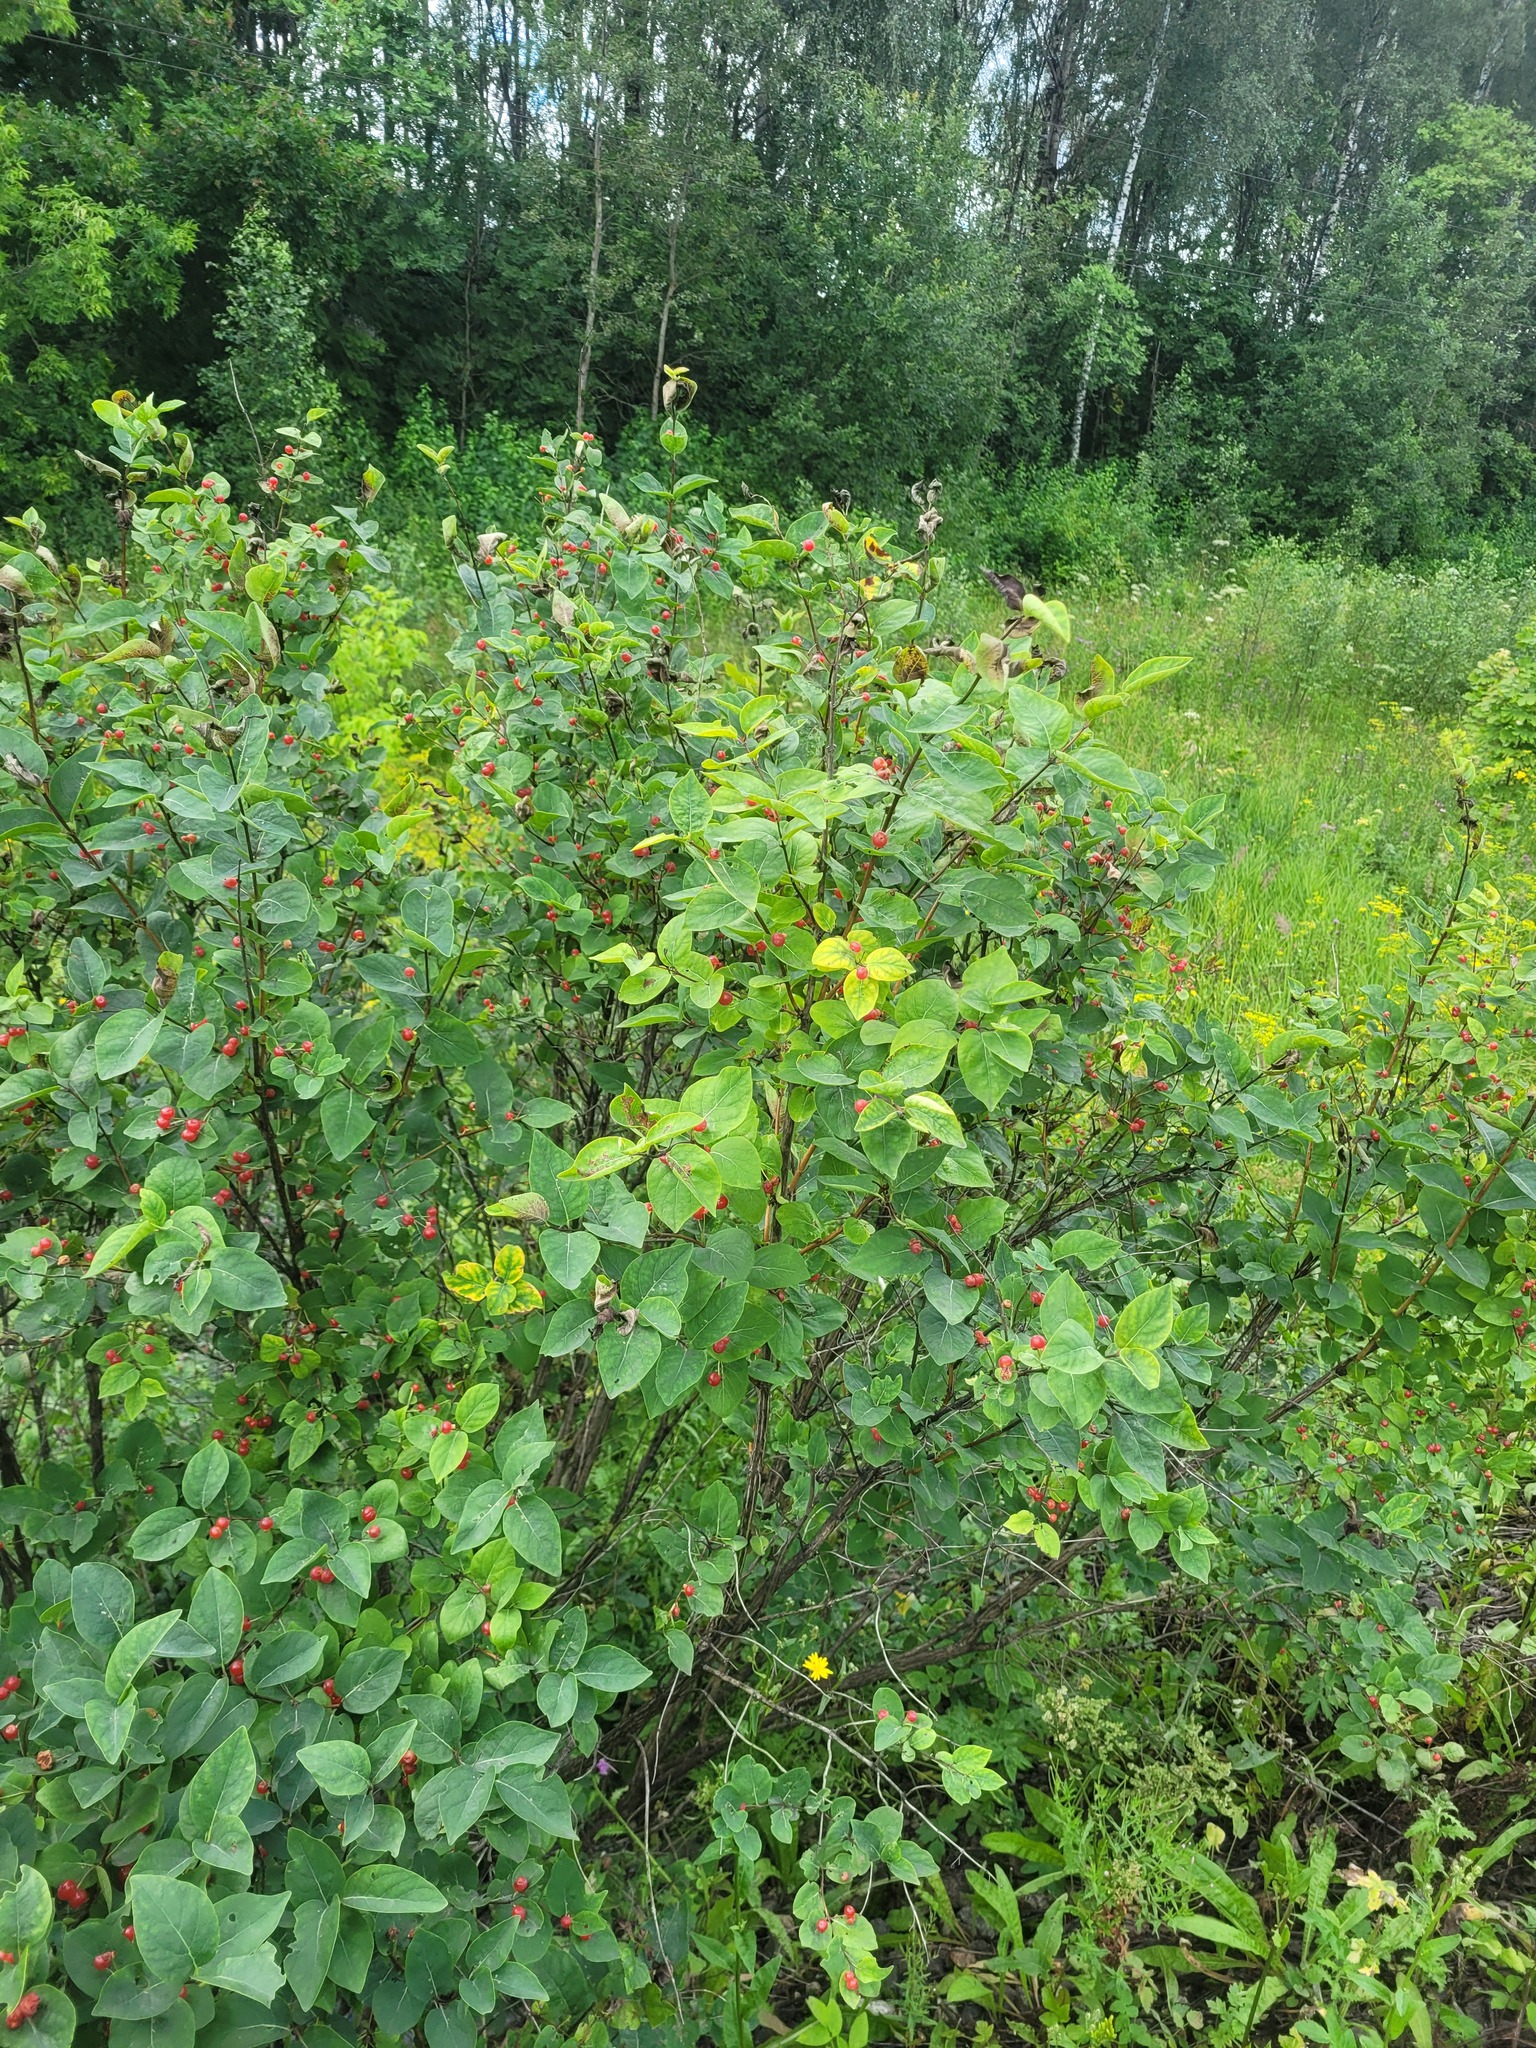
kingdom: Plantae
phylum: Tracheophyta
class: Magnoliopsida
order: Dipsacales
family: Caprifoliaceae
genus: Lonicera
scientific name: Lonicera tatarica
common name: Tatarian honeysuckle
